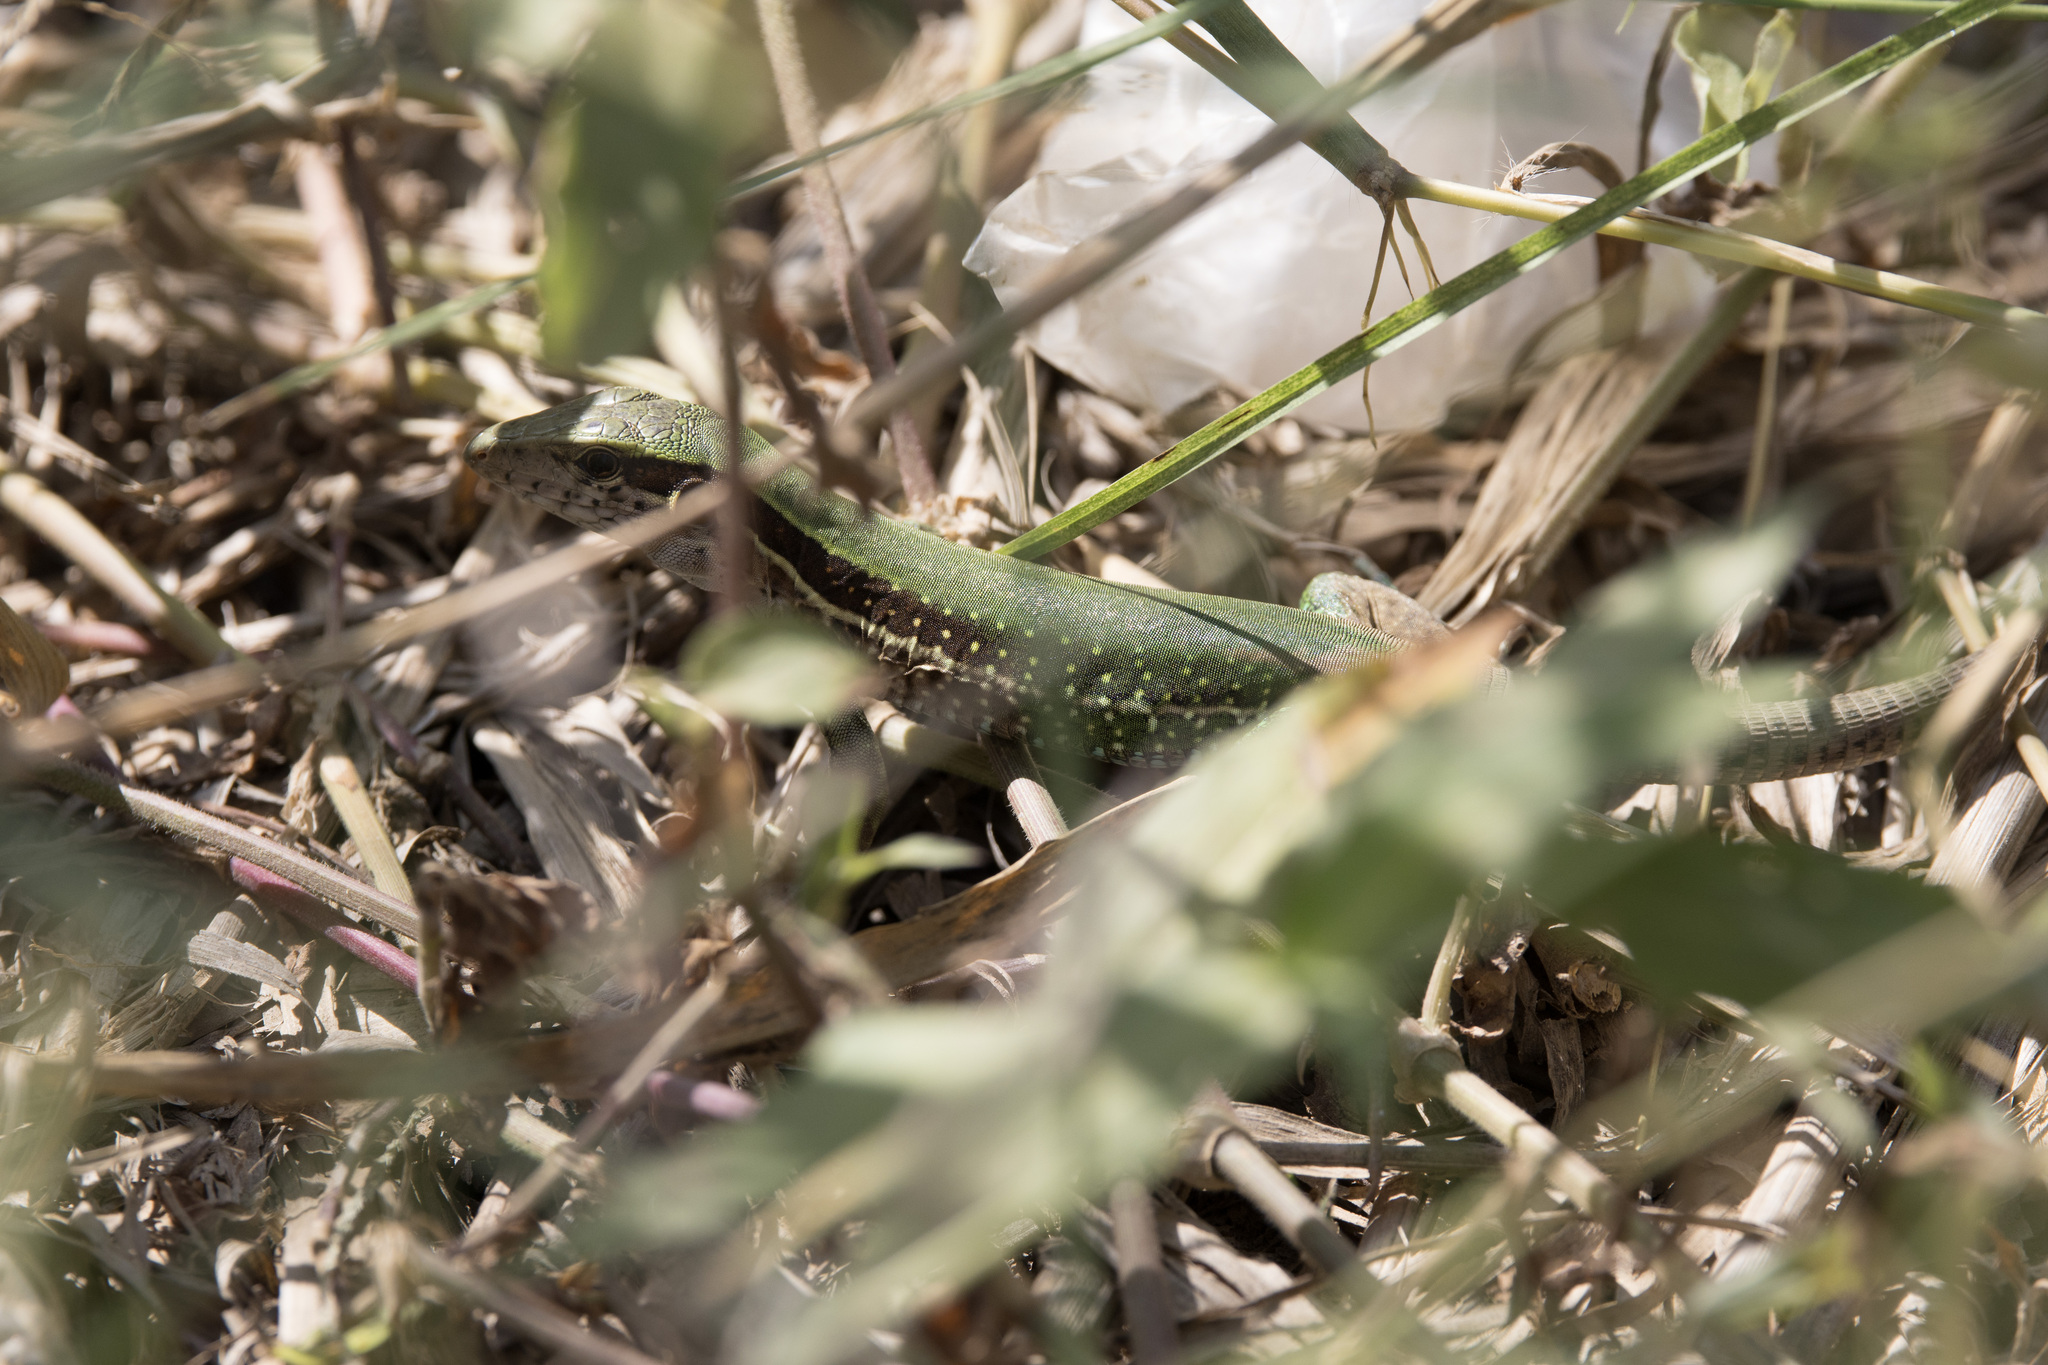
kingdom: Animalia
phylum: Chordata
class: Squamata
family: Teiidae
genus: Ameiva
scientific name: Ameiva ameiva
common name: Giant ameiva
